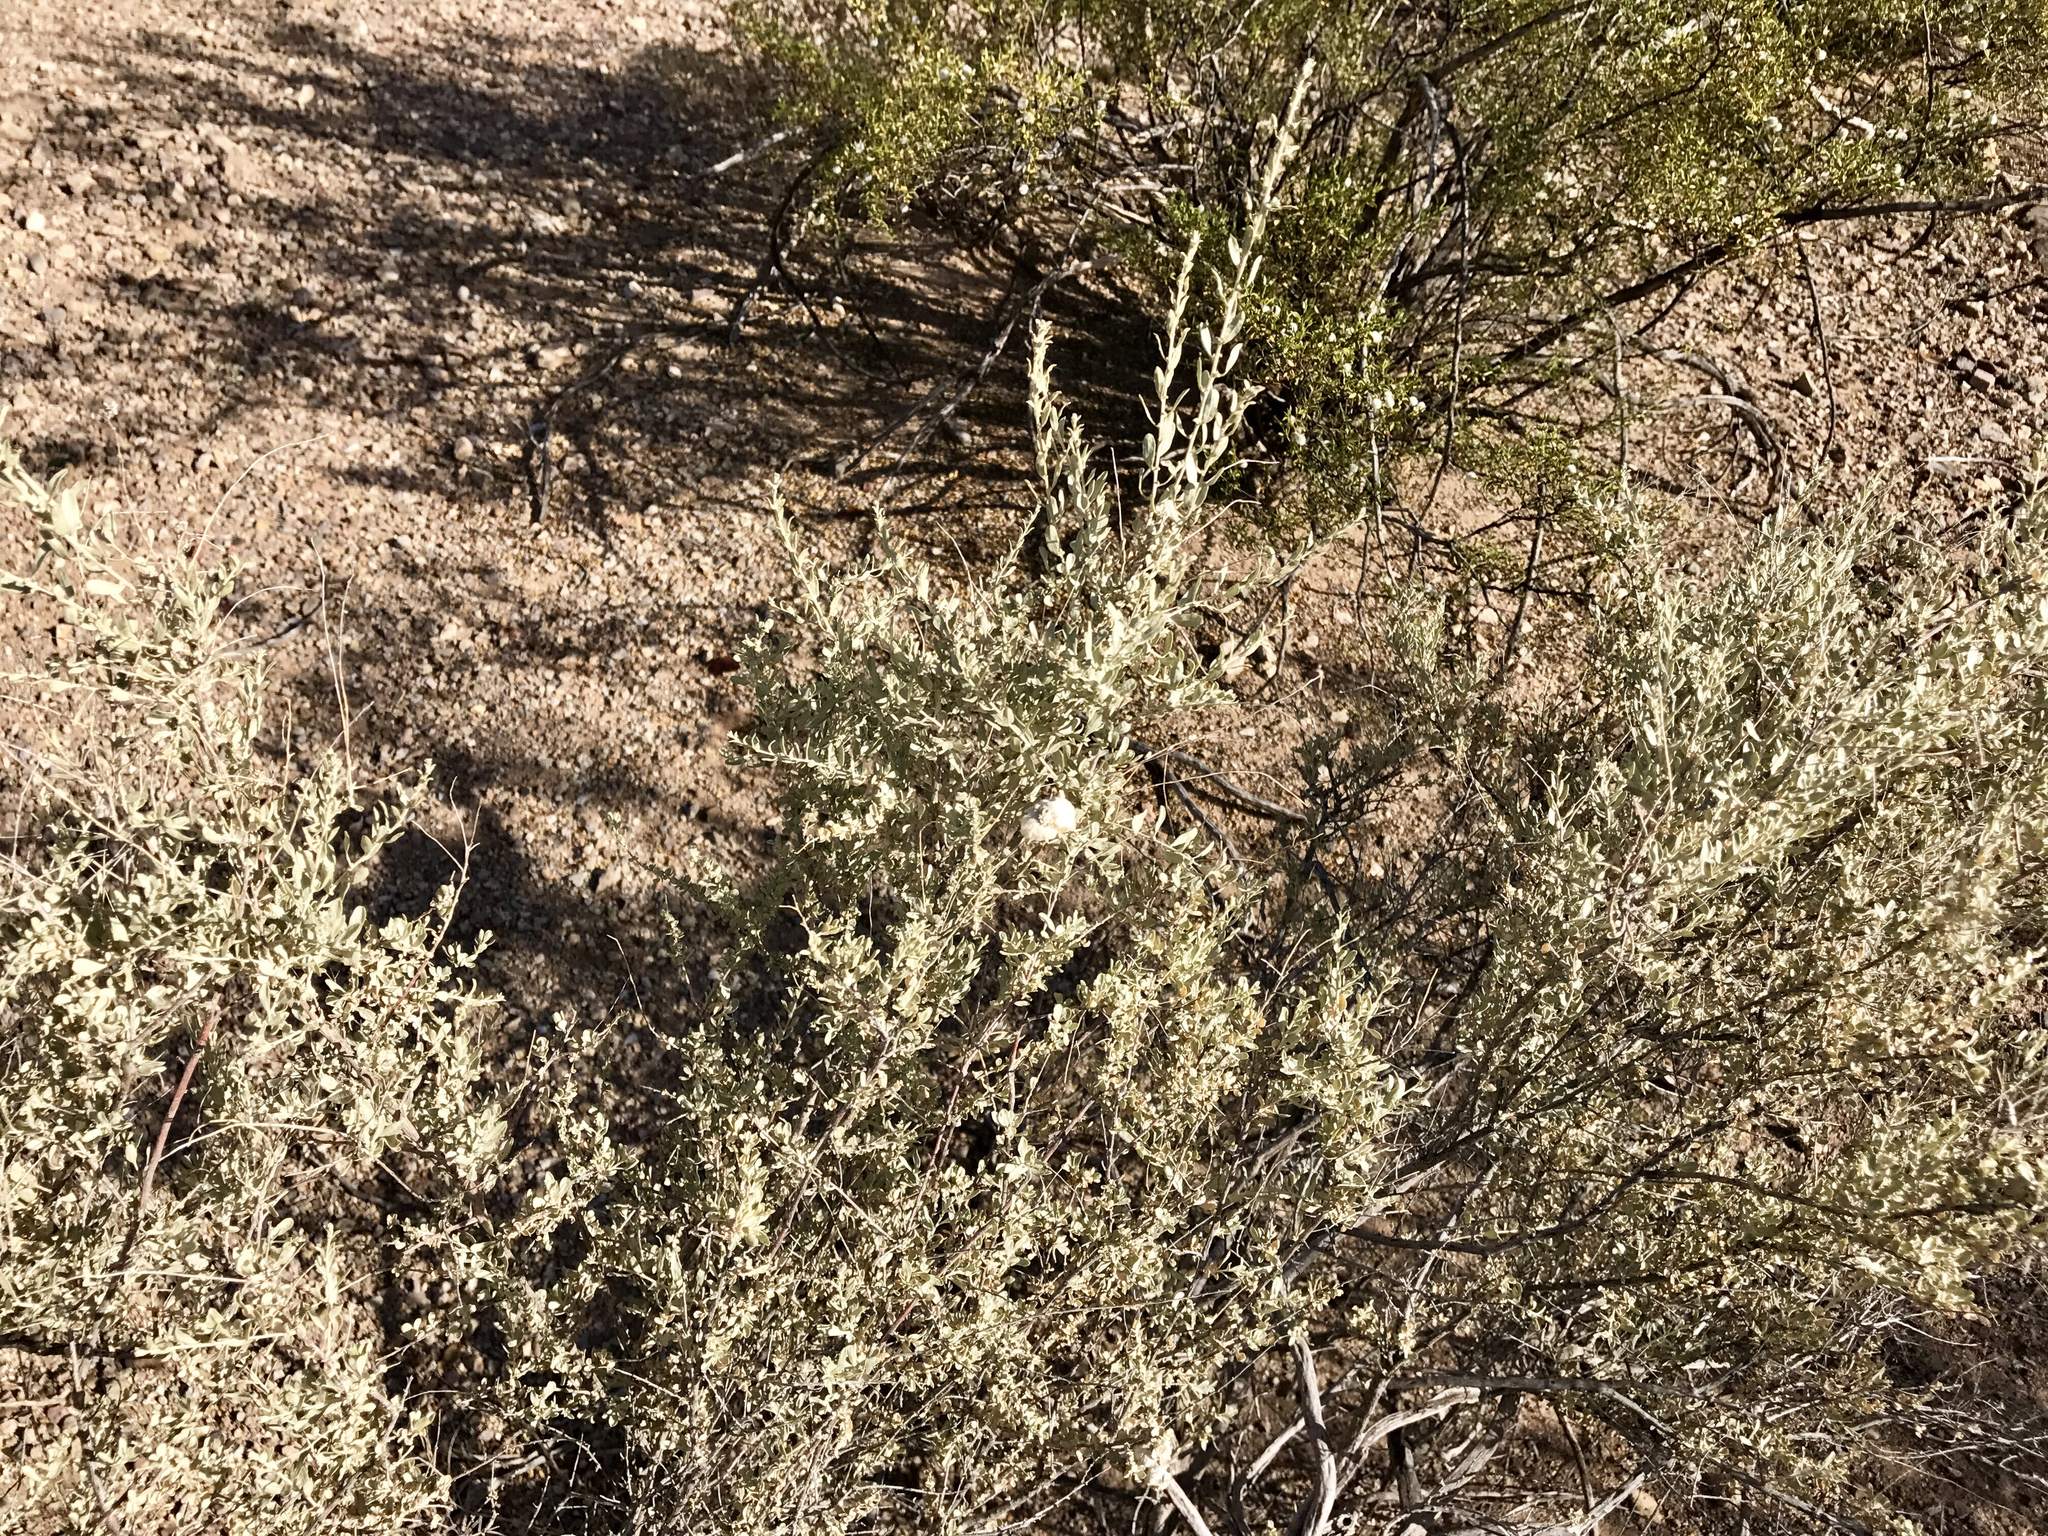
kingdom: Plantae
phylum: Tracheophyta
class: Magnoliopsida
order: Caryophyllales
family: Amaranthaceae
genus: Atriplex
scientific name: Atriplex canescens
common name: Four-wing saltbush
